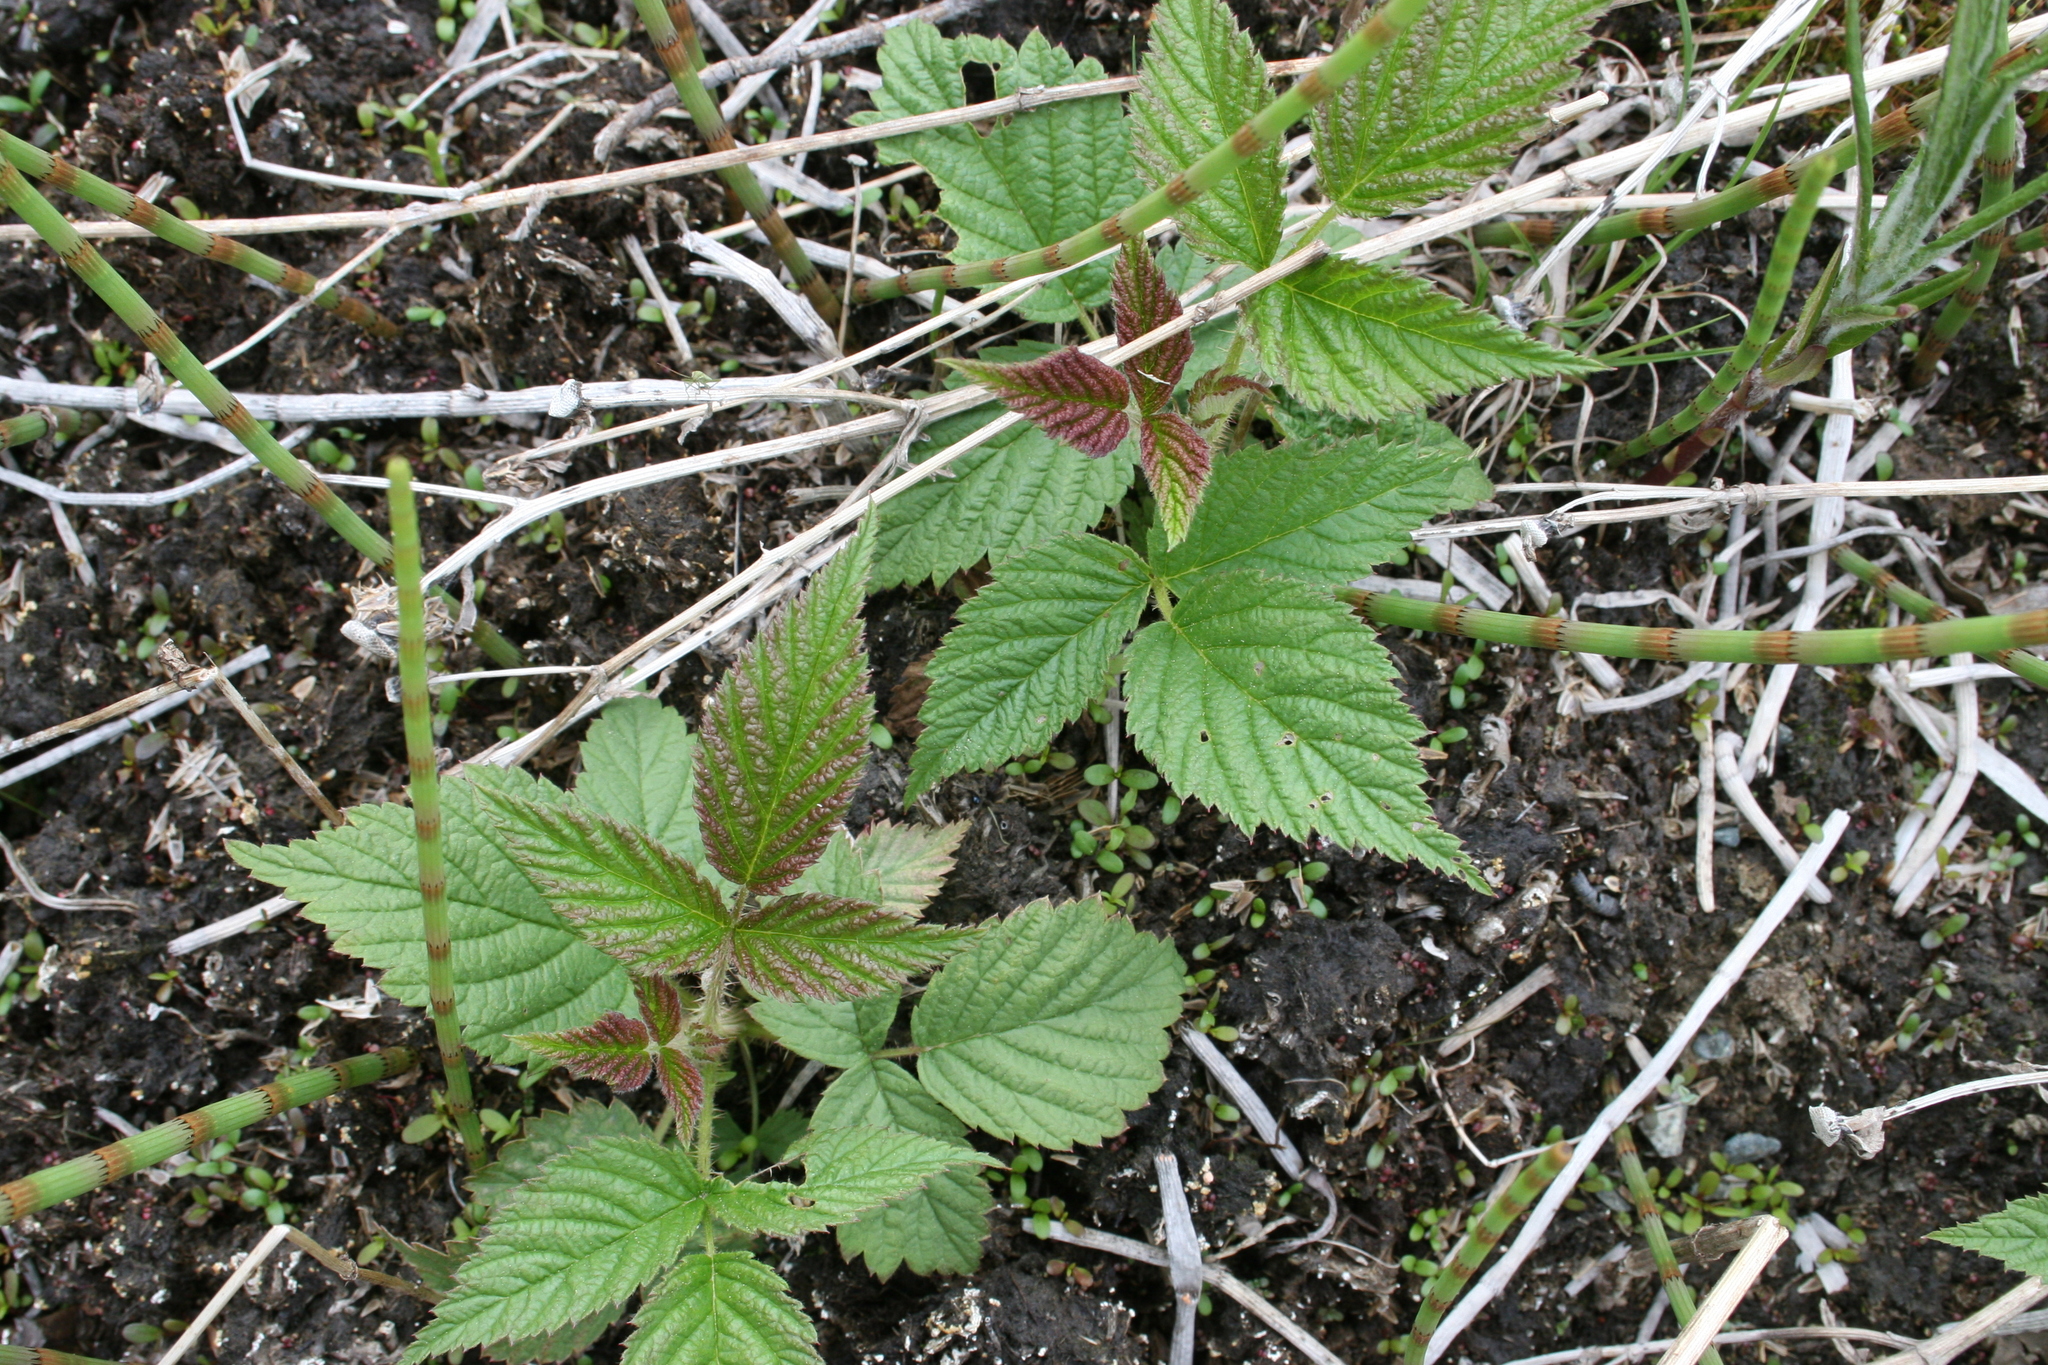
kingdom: Plantae
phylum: Tracheophyta
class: Magnoliopsida
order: Rosales
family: Rosaceae
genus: Rubus
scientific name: Rubus idaeus
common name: Raspberry
